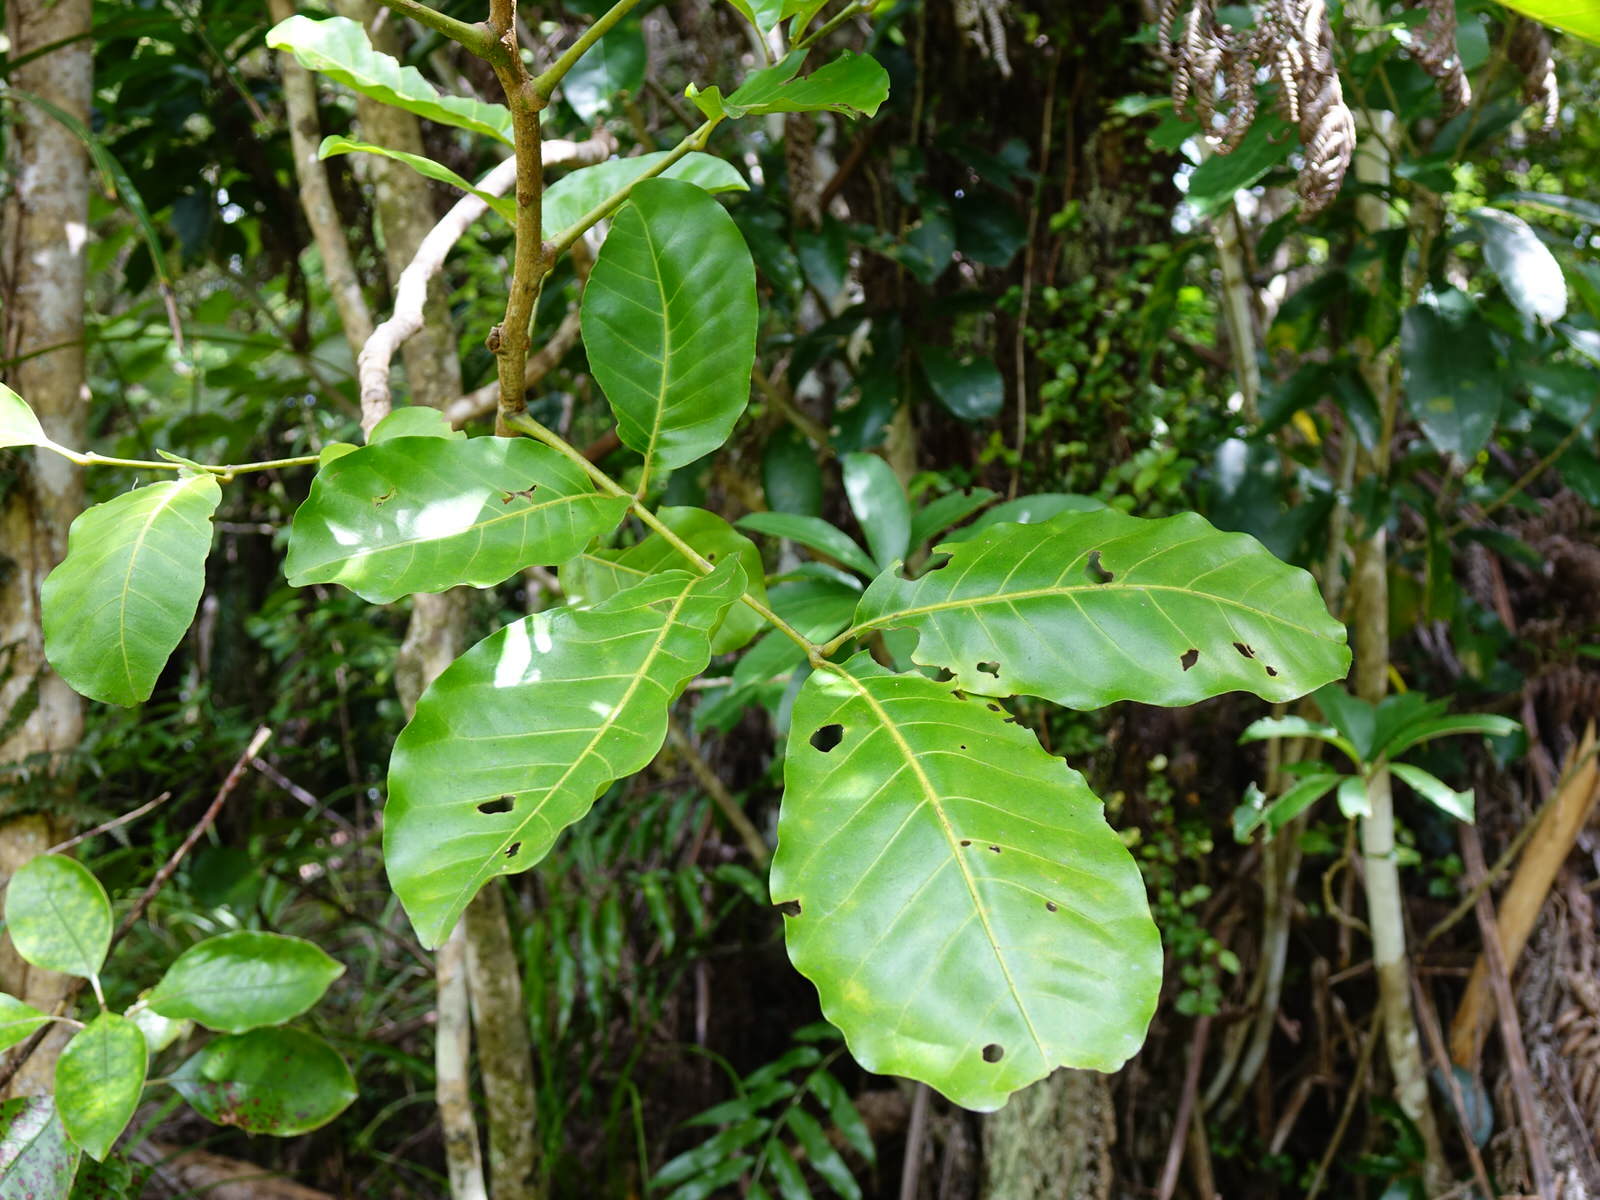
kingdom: Plantae
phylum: Tracheophyta
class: Magnoliopsida
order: Sapindales
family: Meliaceae
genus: Didymocheton
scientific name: Didymocheton spectabilis
